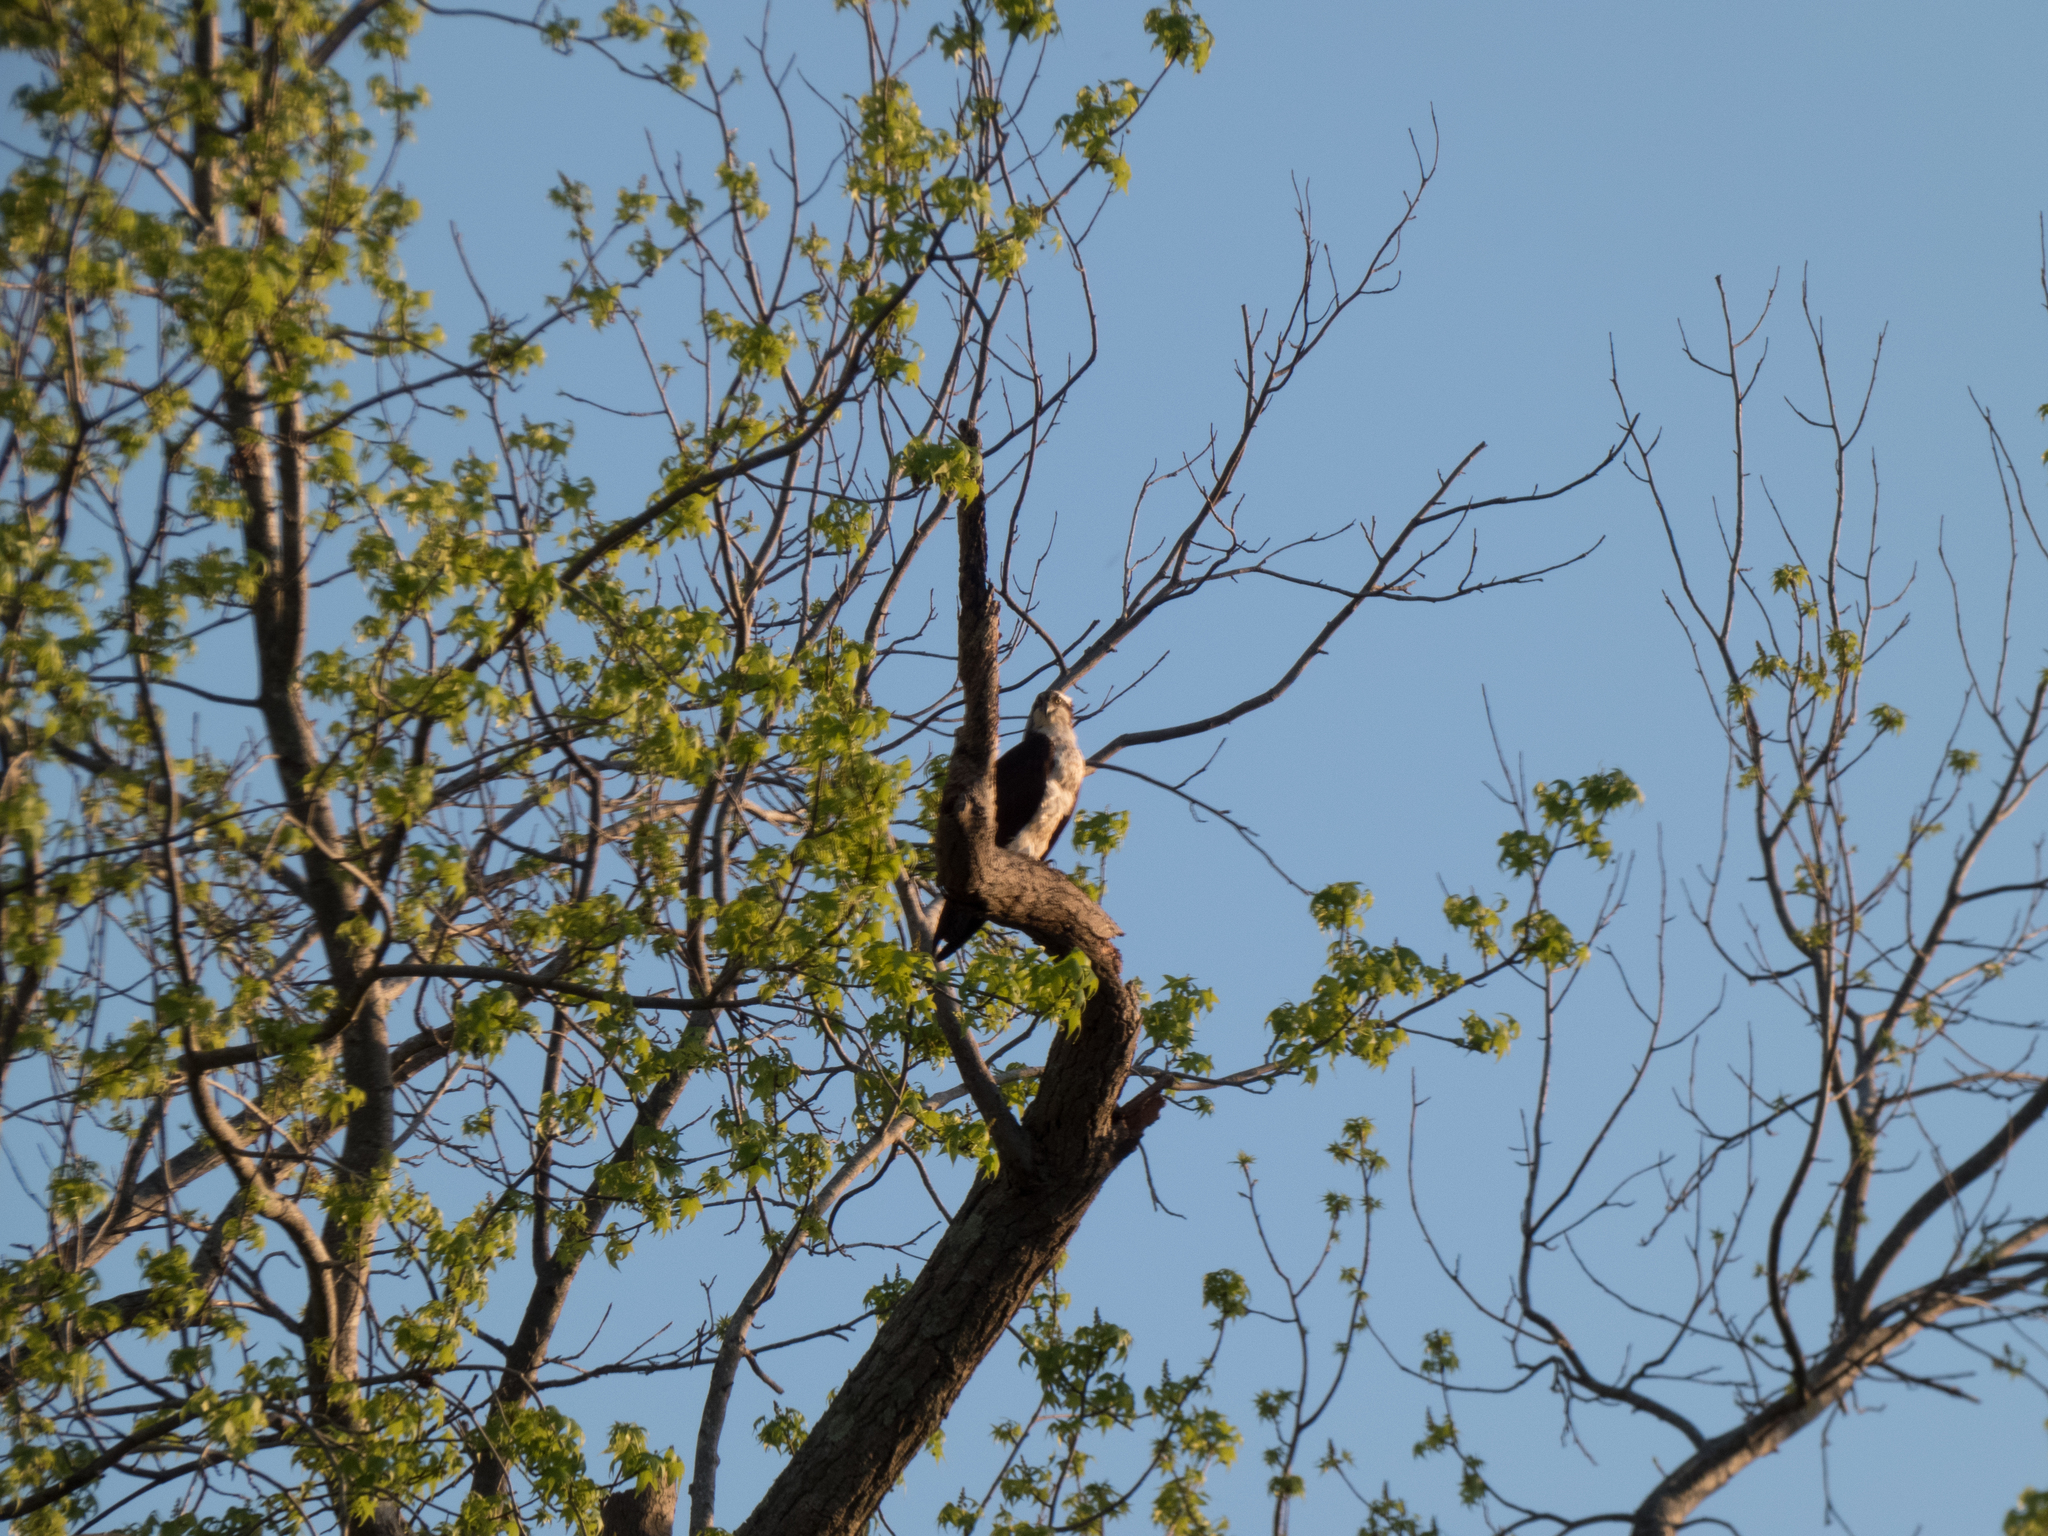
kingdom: Animalia
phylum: Chordata
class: Aves
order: Accipitriformes
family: Pandionidae
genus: Pandion
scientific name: Pandion haliaetus
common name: Osprey
